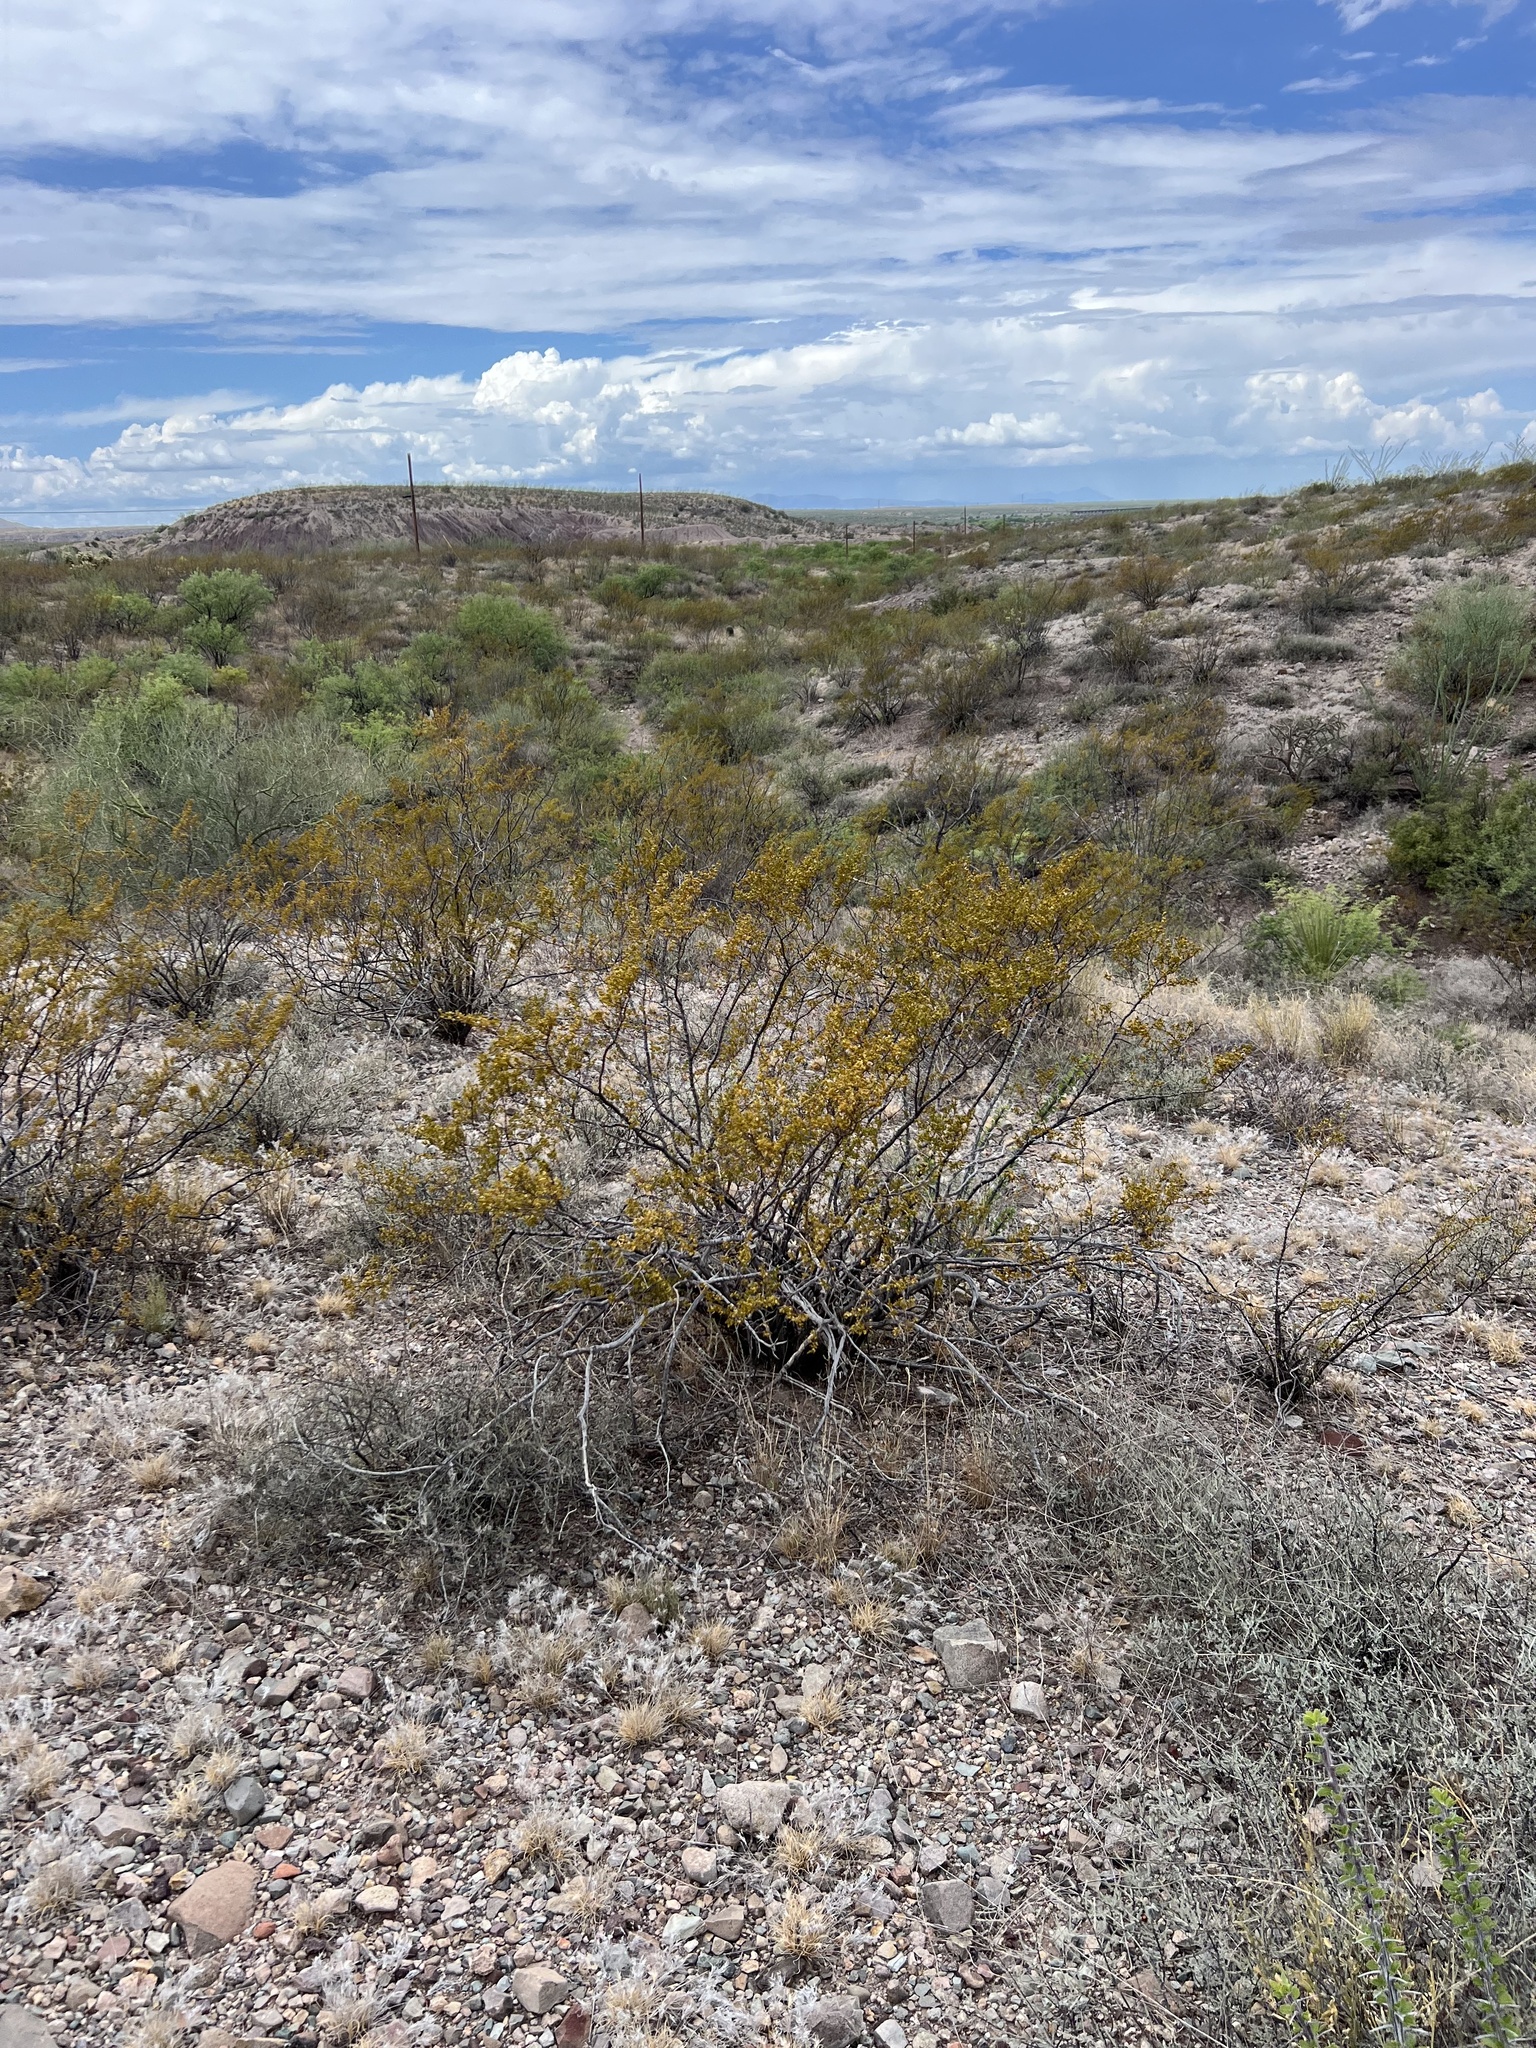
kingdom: Plantae
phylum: Tracheophyta
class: Magnoliopsida
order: Zygophyllales
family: Zygophyllaceae
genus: Larrea
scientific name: Larrea tridentata
